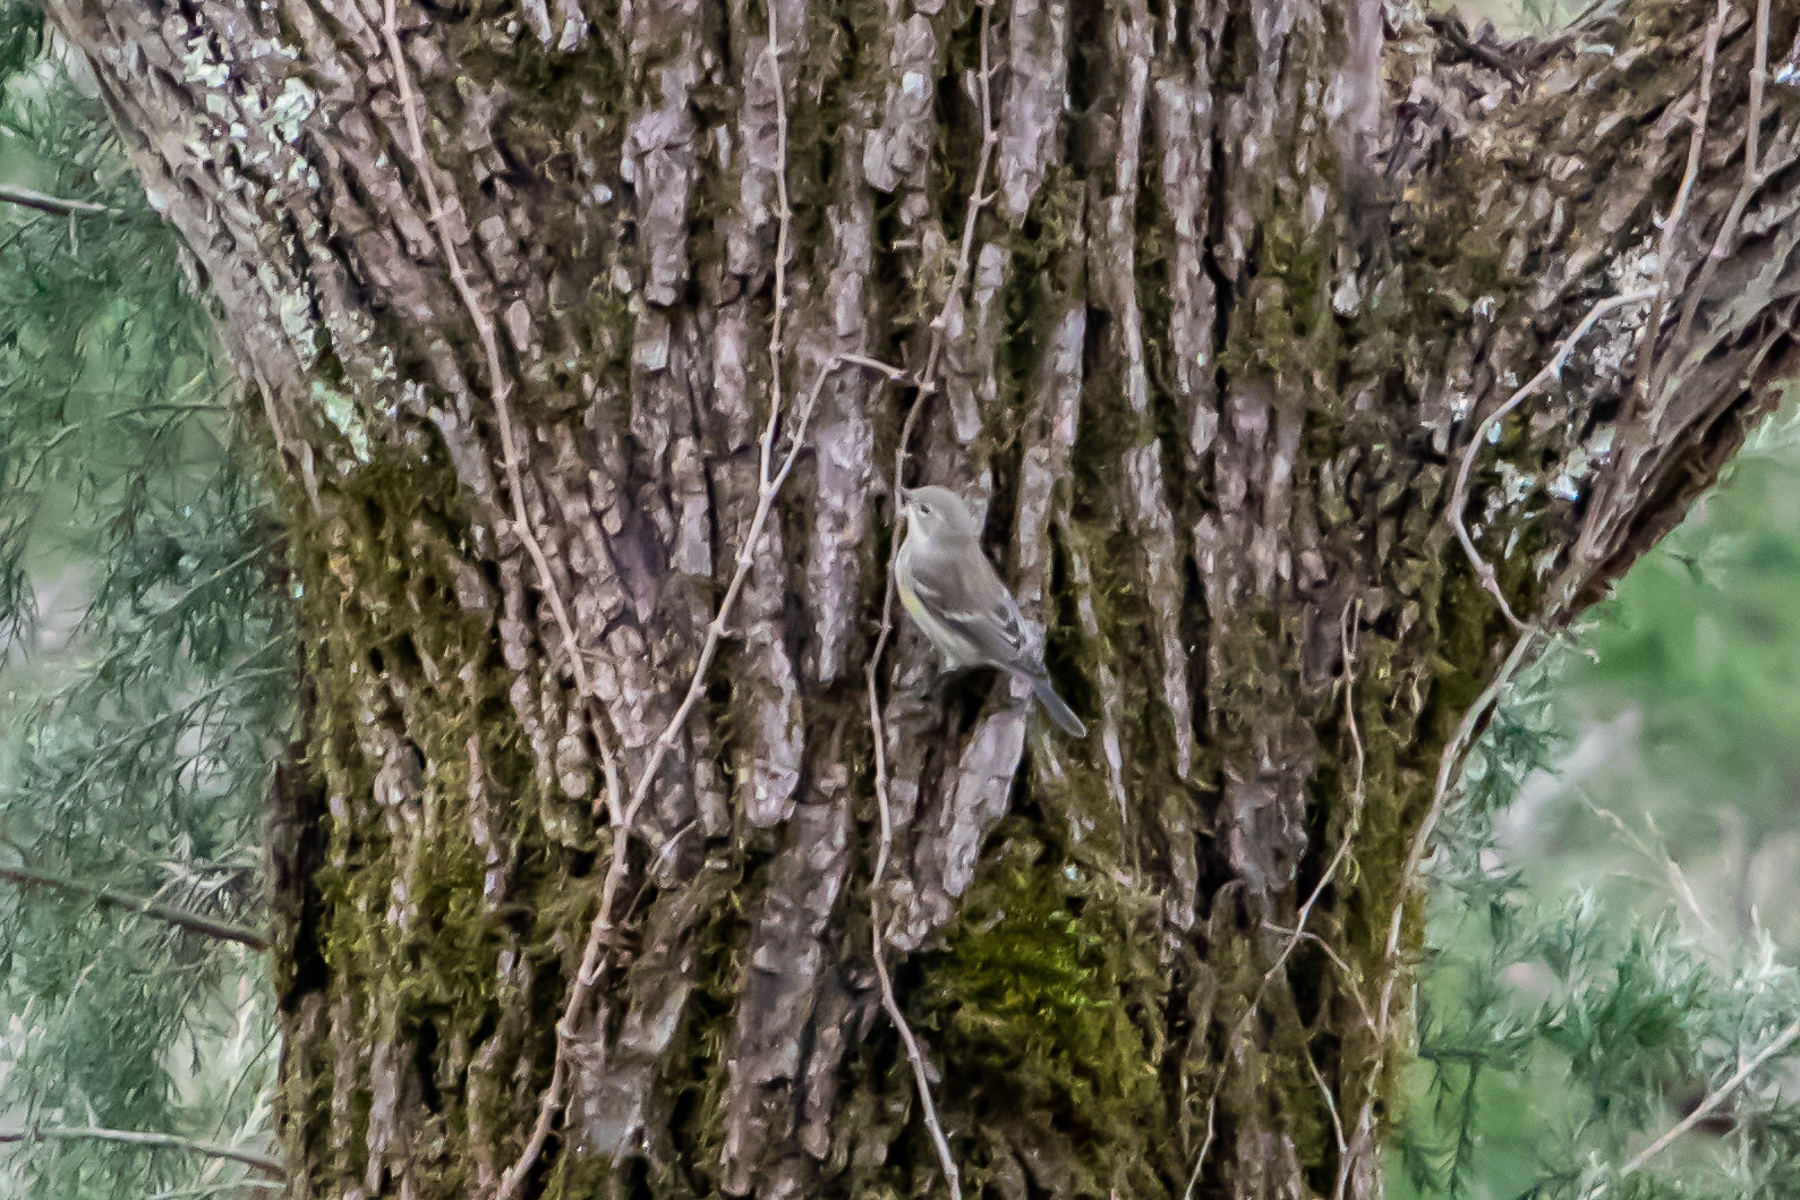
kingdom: Animalia
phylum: Chordata
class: Aves
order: Passeriformes
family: Parulidae
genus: Setophaga
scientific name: Setophaga coronata
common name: Myrtle warbler
